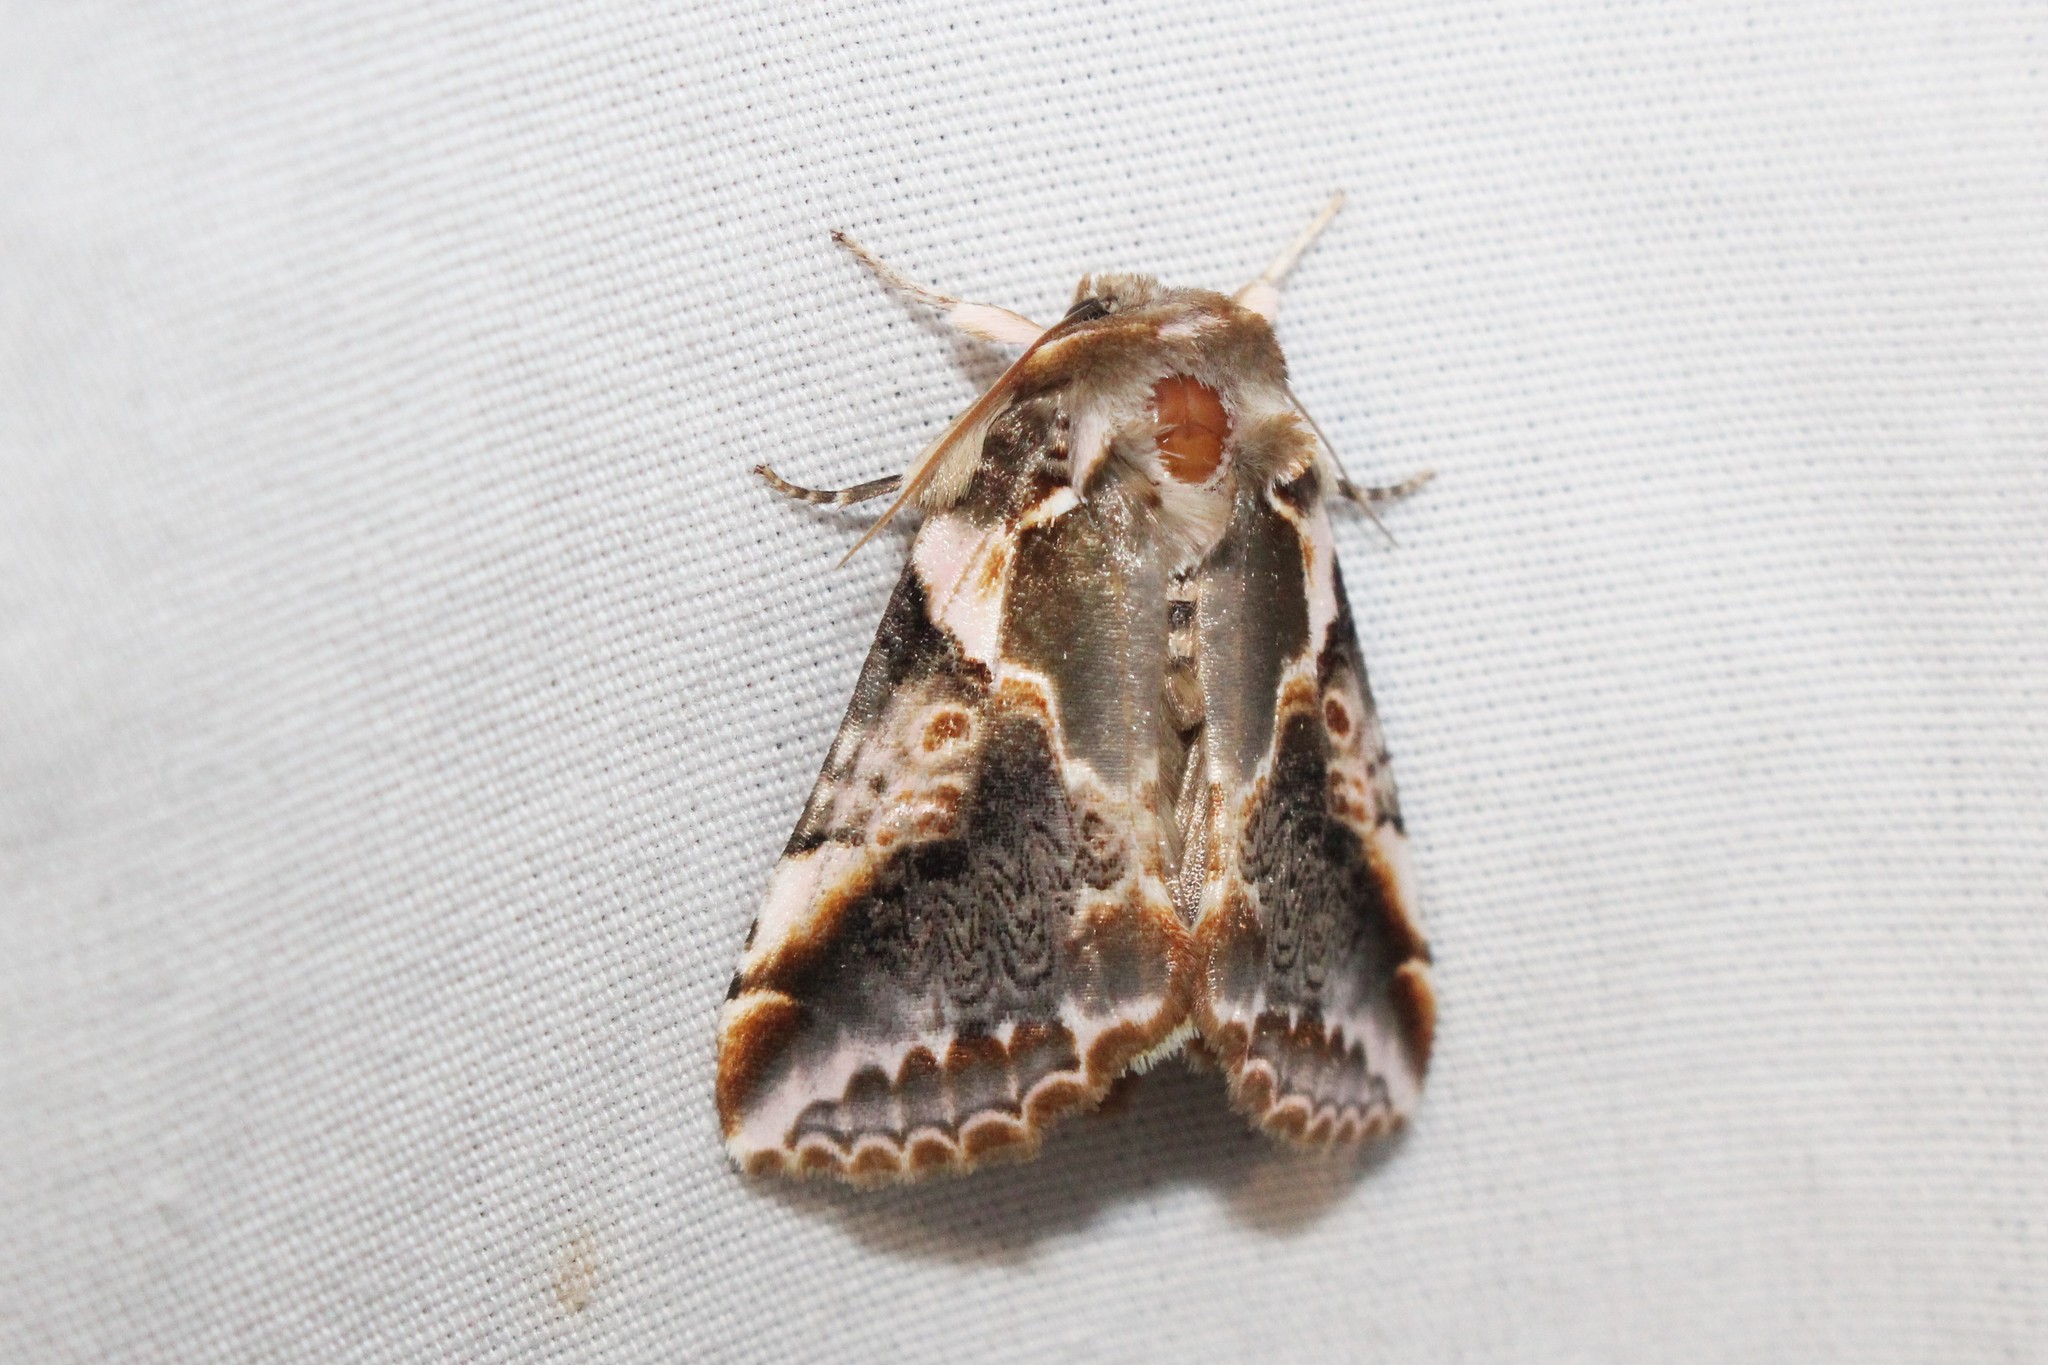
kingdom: Animalia
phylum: Arthropoda
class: Insecta
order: Lepidoptera
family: Drepanidae
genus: Habrosyne
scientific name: Habrosyne gloriosa
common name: Glorious habrosyne moth
